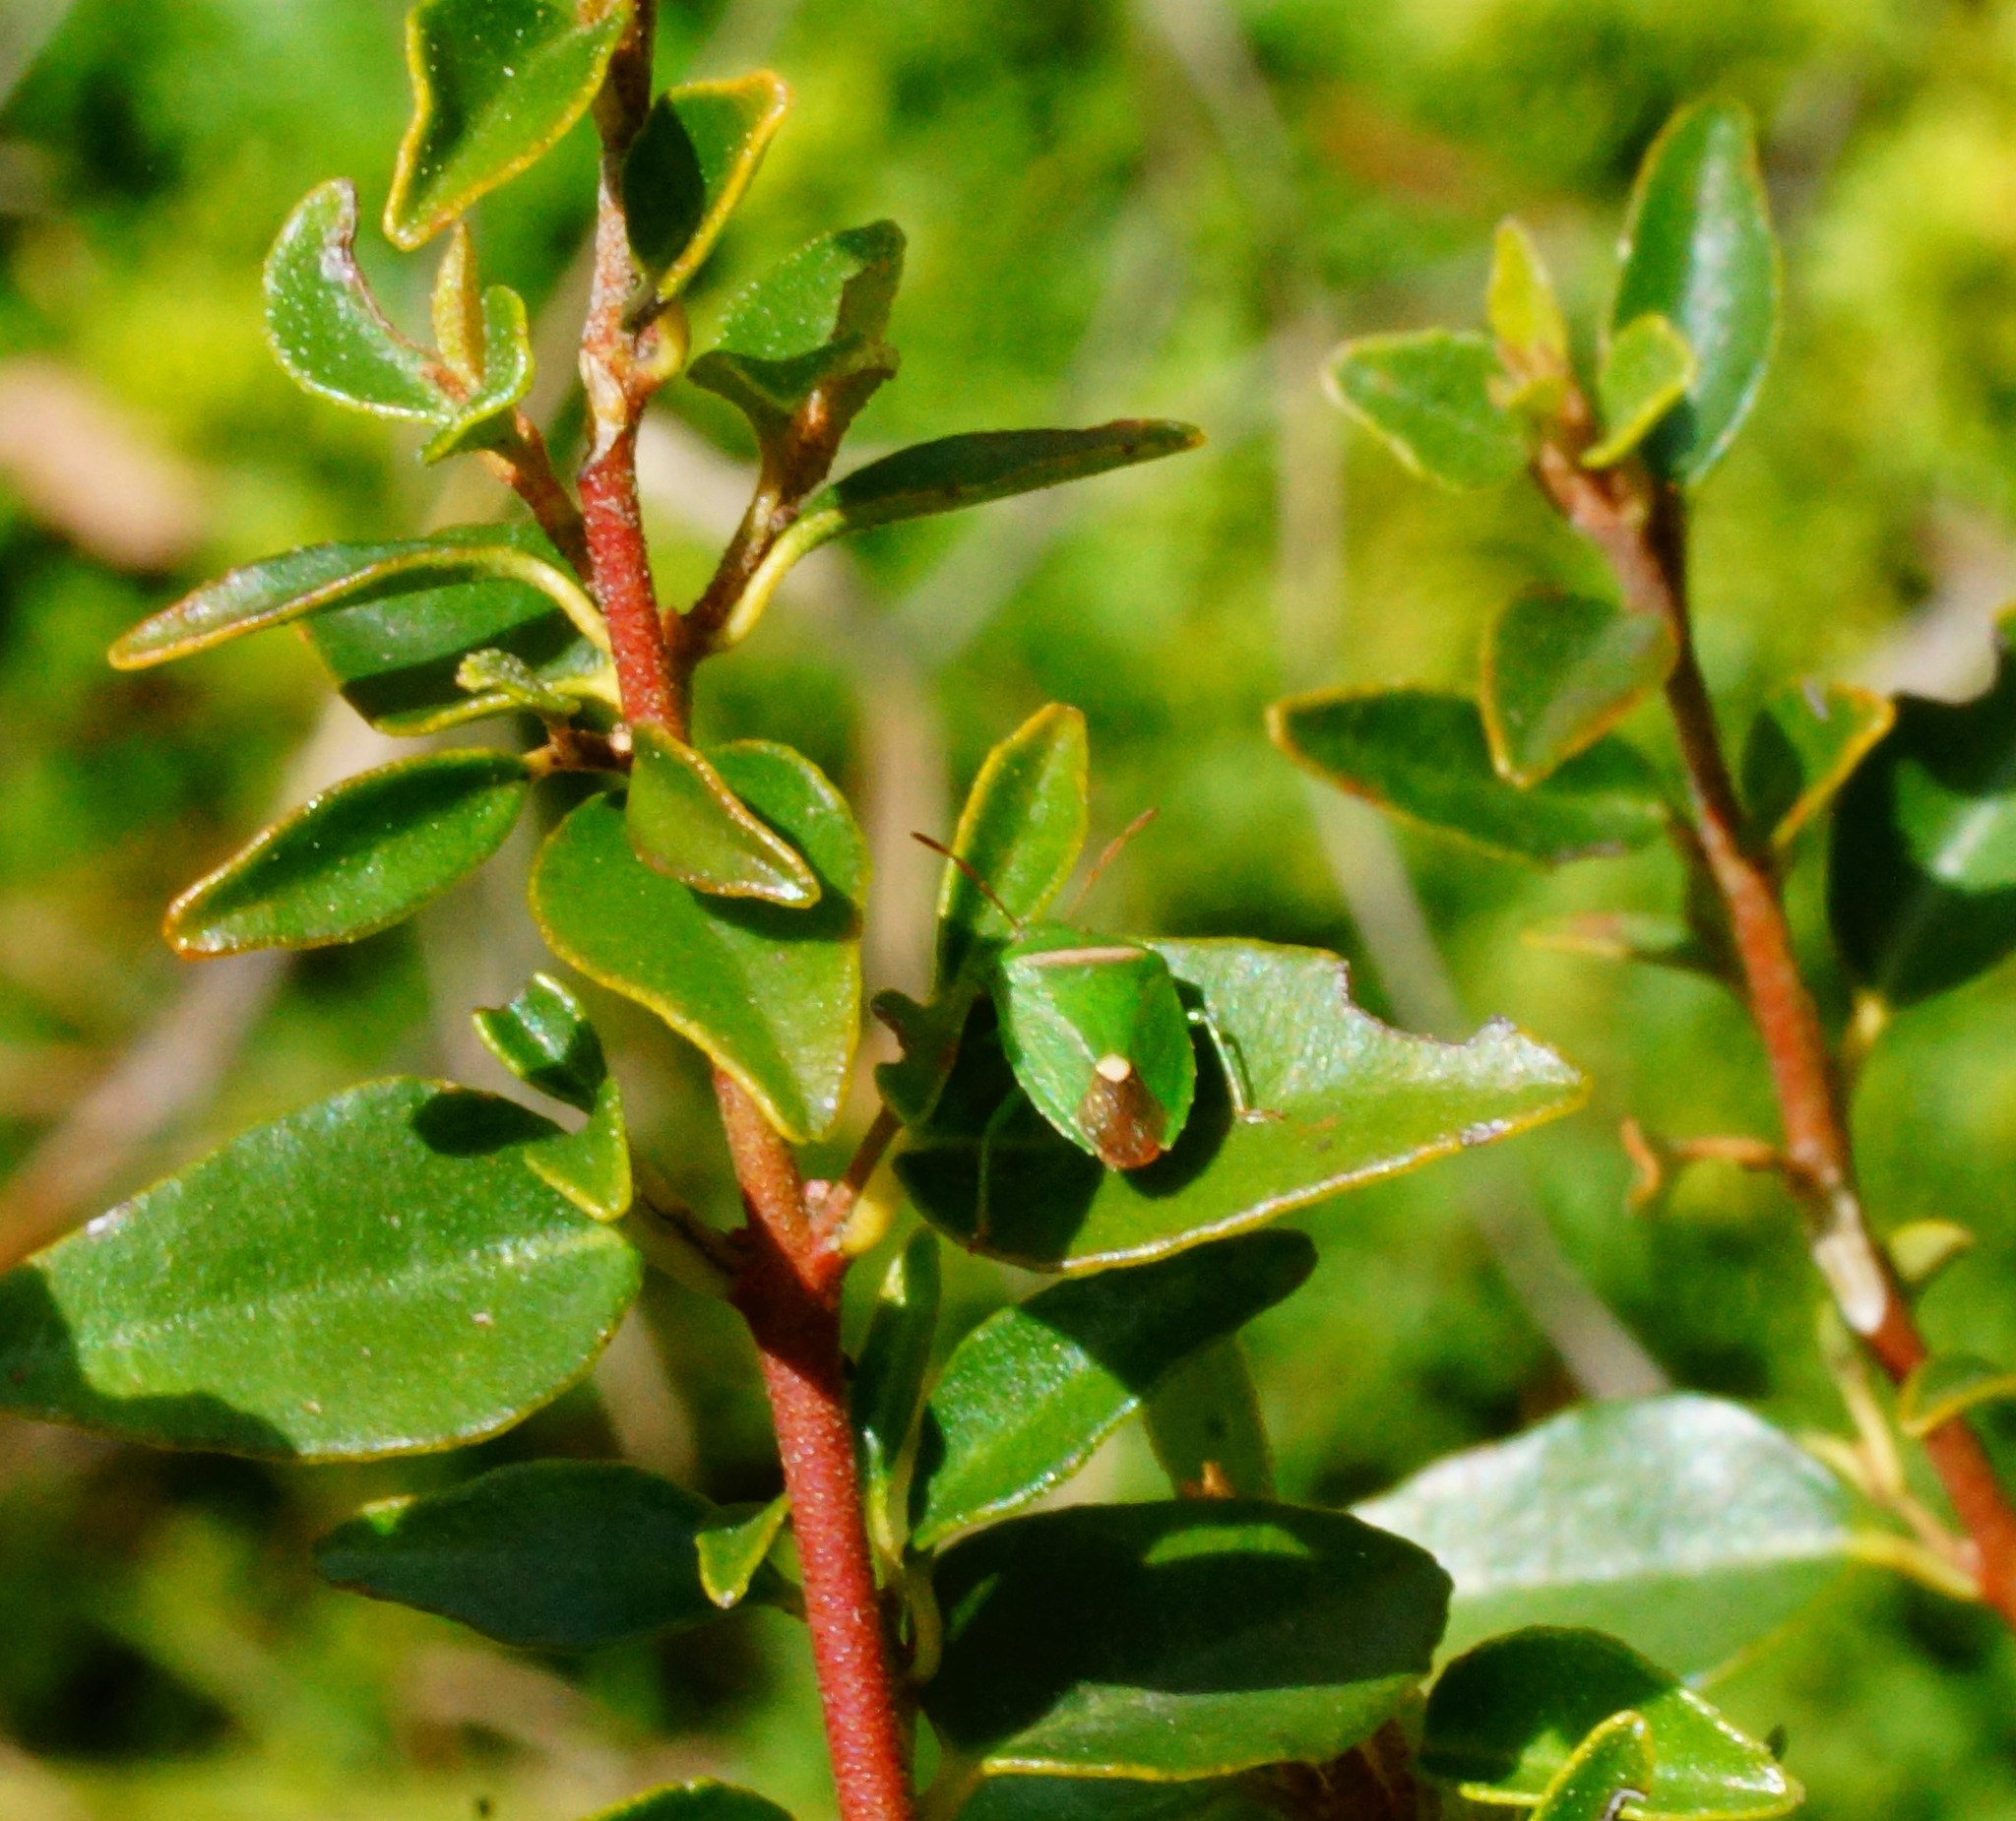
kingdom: Animalia
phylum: Arthropoda
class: Insecta
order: Hemiptera
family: Pentatomidae
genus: Ocirrhoe
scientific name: Ocirrhoe
